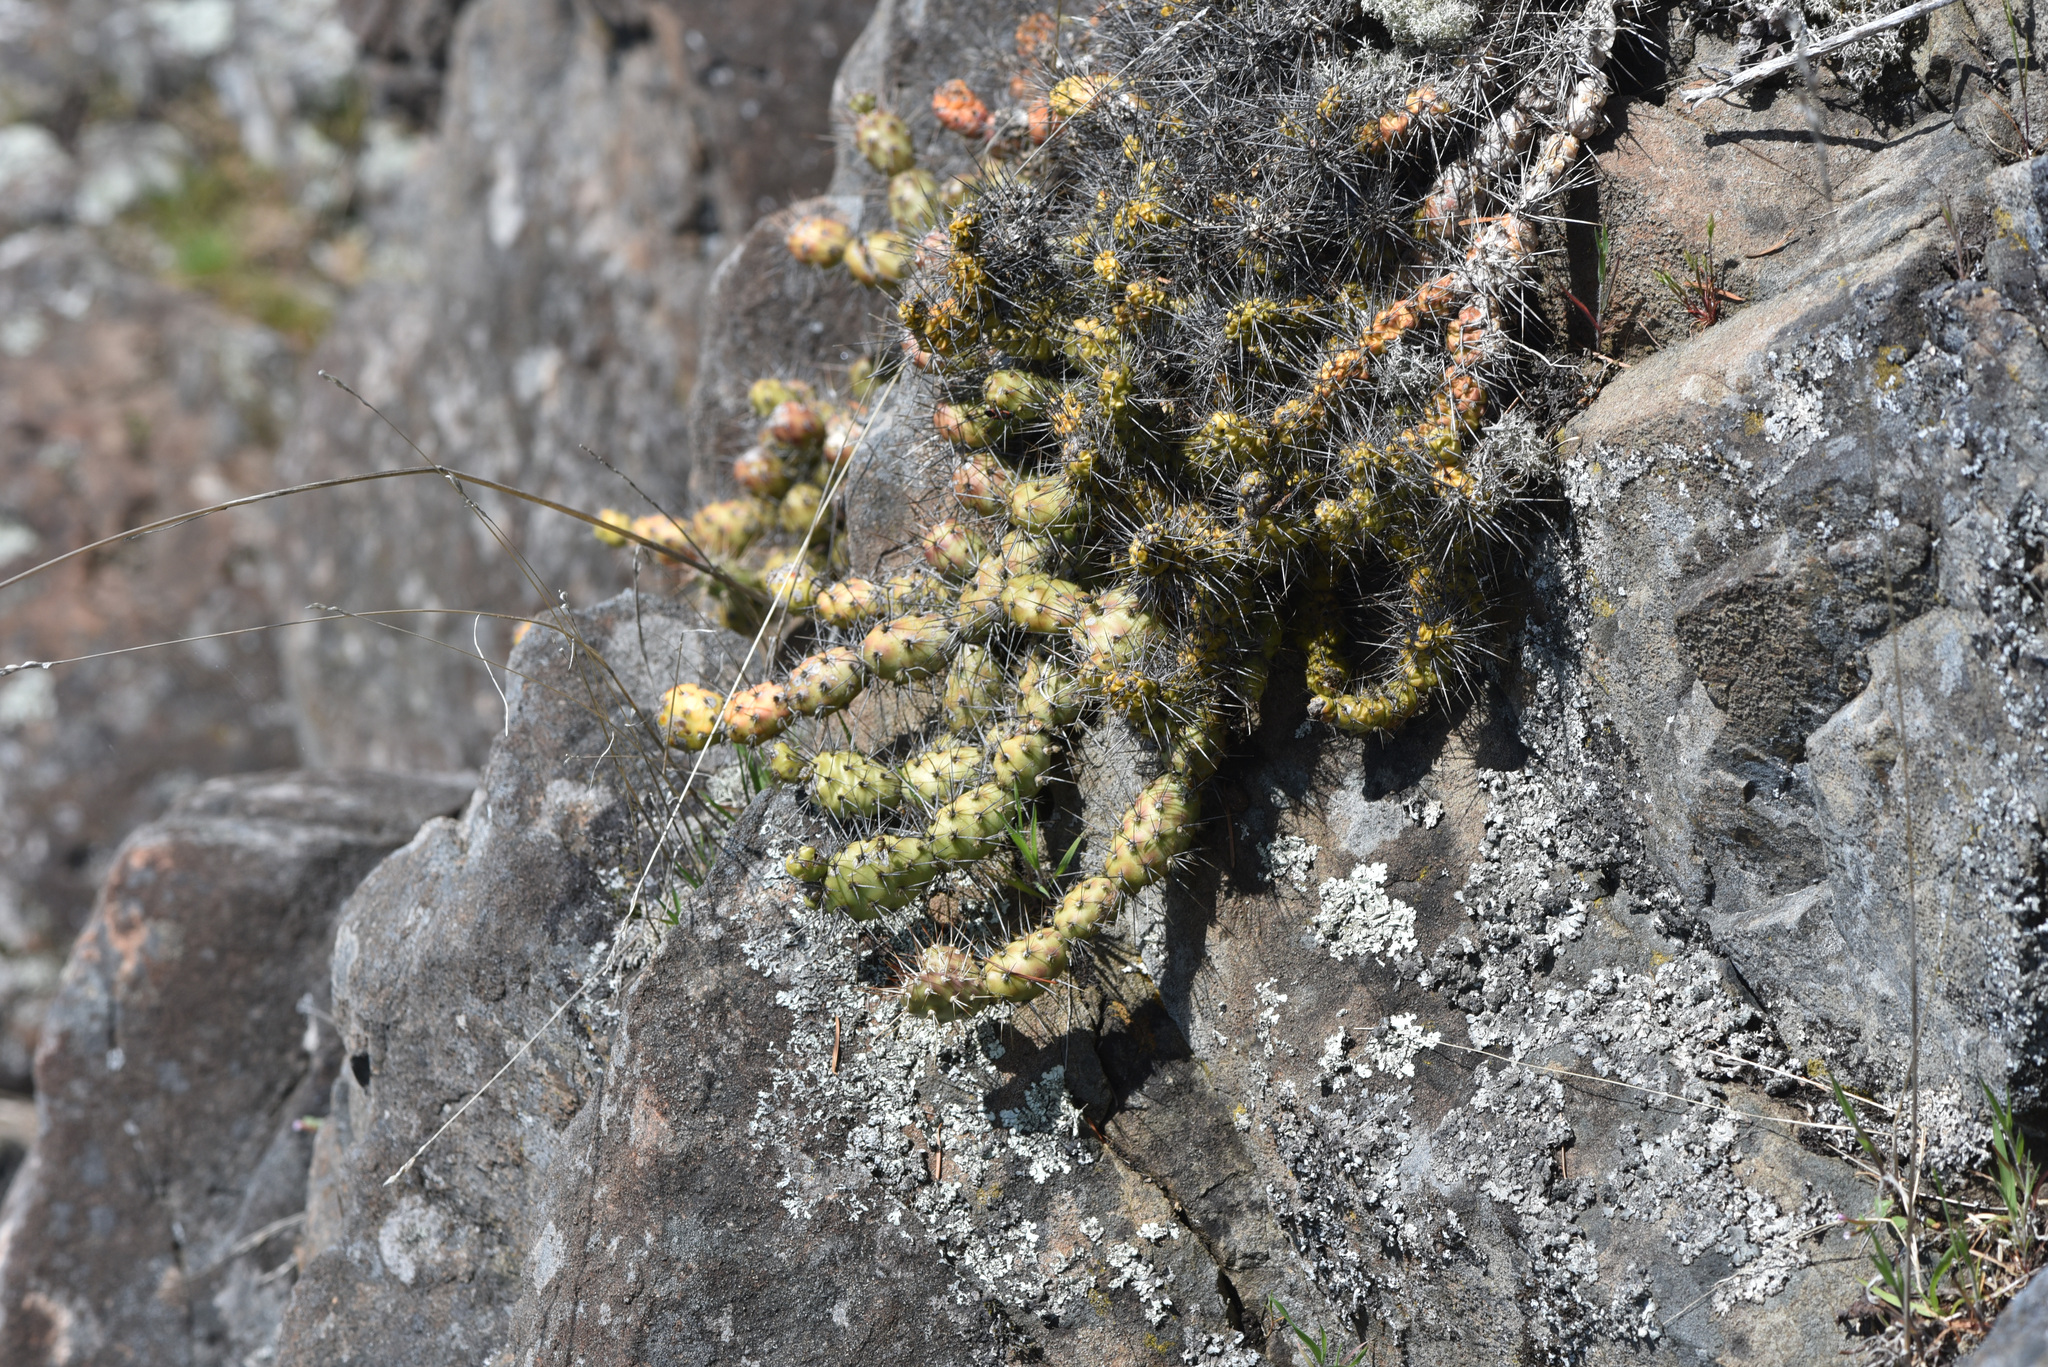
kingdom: Plantae
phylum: Tracheophyta
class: Magnoliopsida
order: Caryophyllales
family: Cactaceae
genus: Opuntia
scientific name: Opuntia fragilis
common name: Brittle cactus
